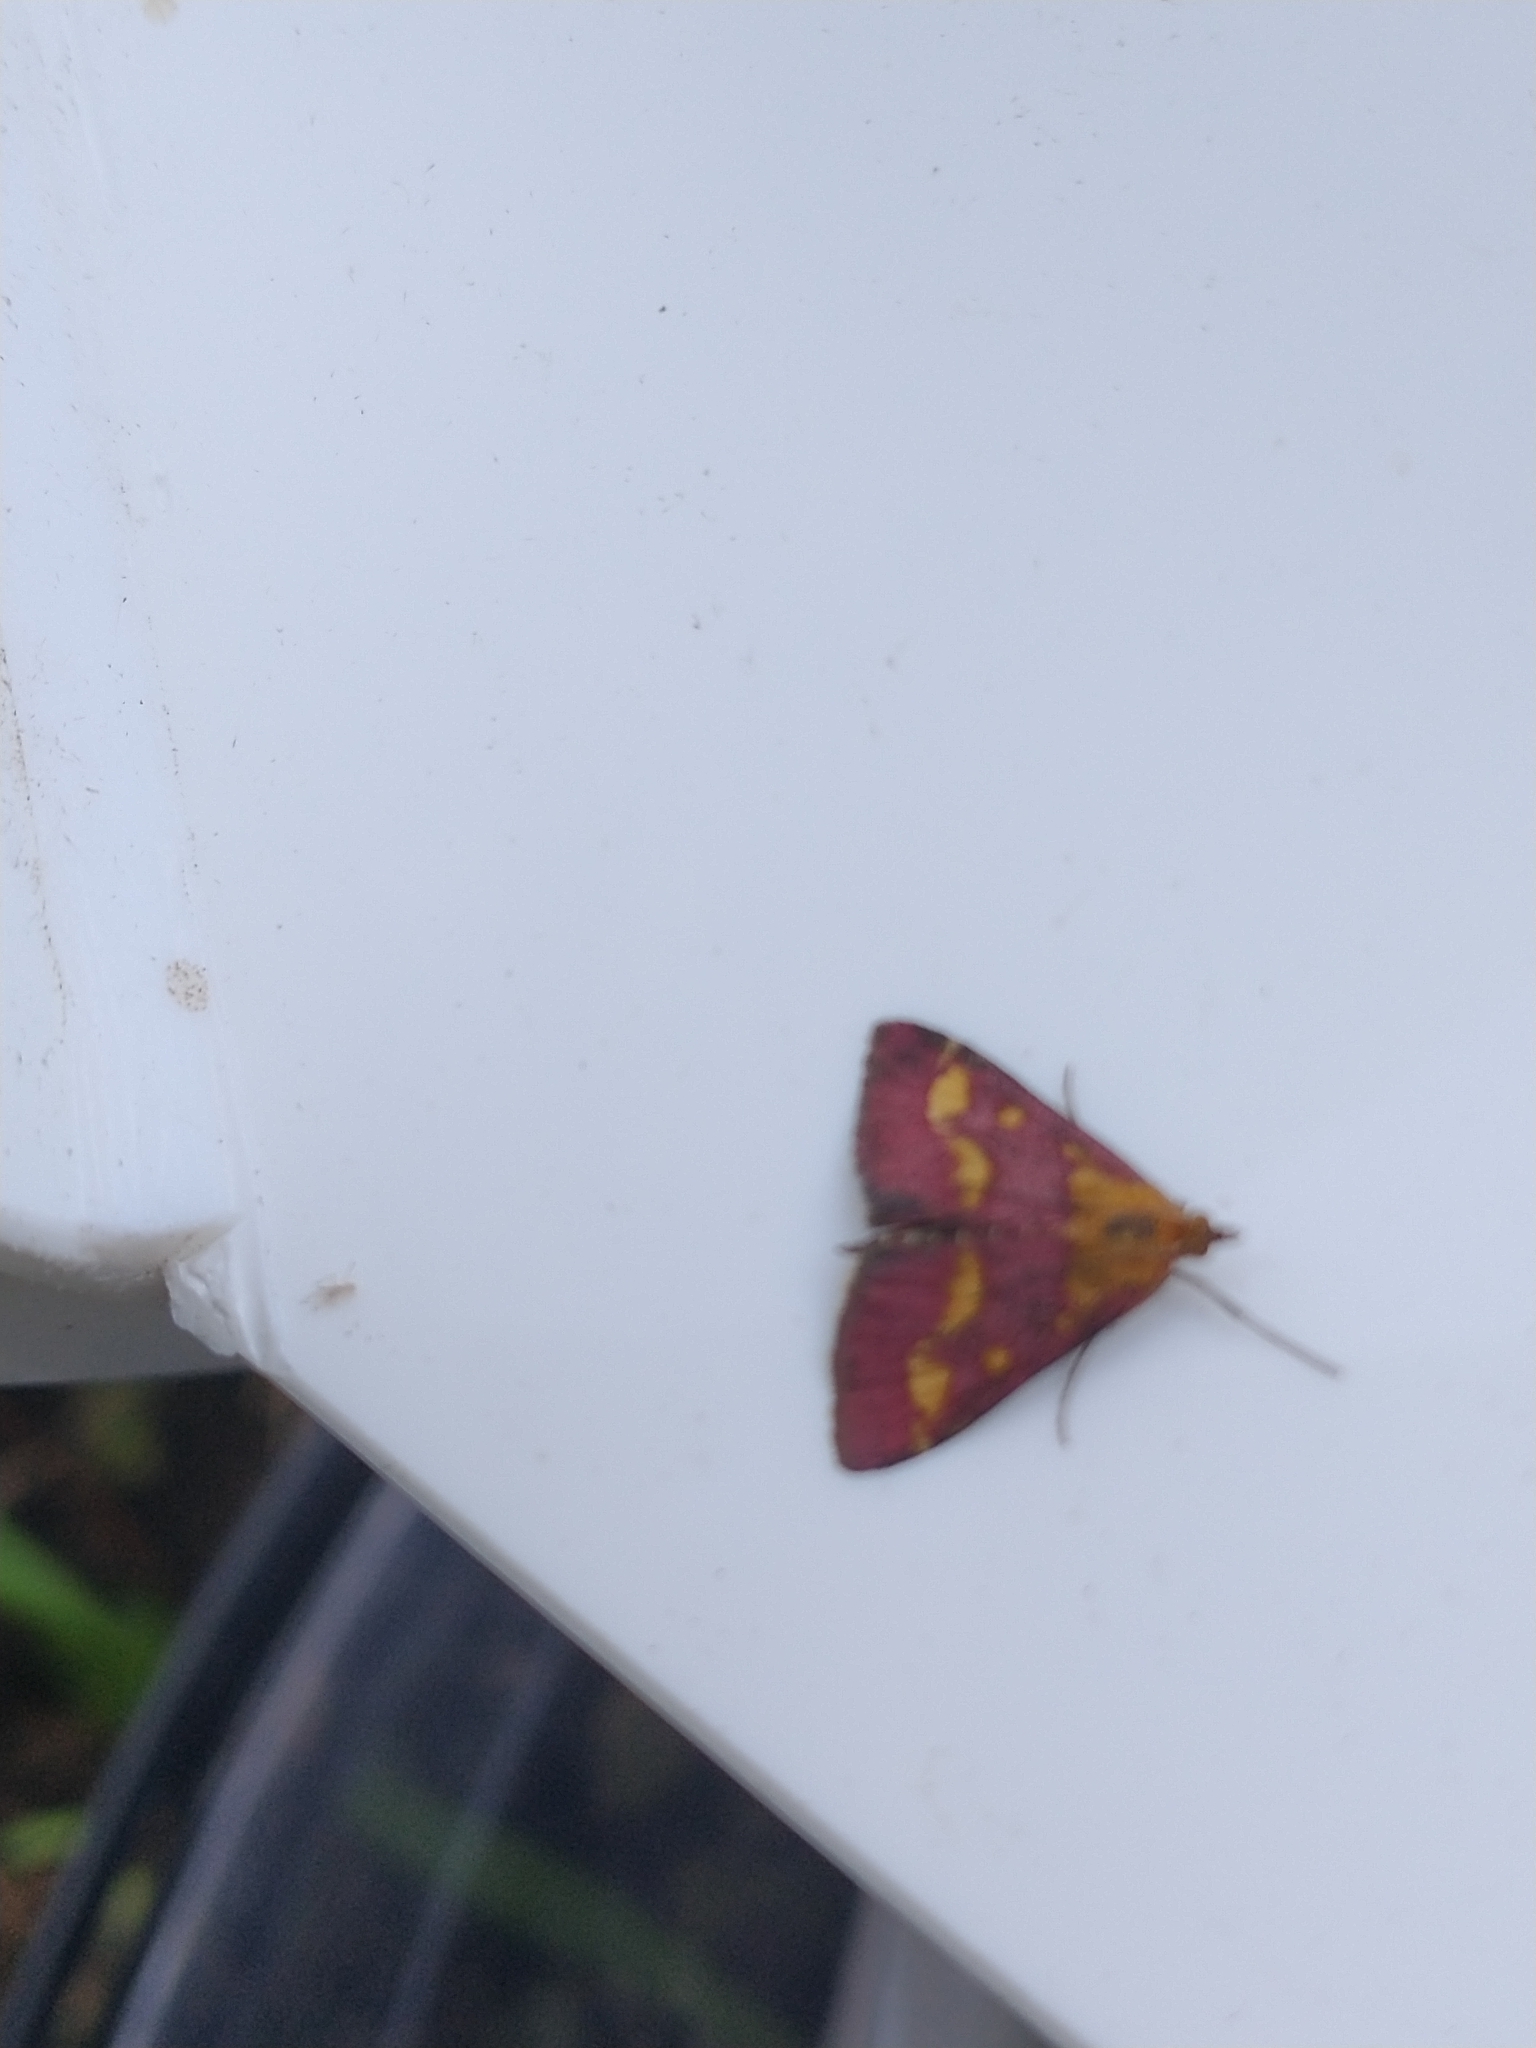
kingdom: Animalia
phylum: Arthropoda
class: Insecta
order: Lepidoptera
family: Crambidae
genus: Pyrausta
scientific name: Pyrausta purpuralis
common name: Common purple & gold
